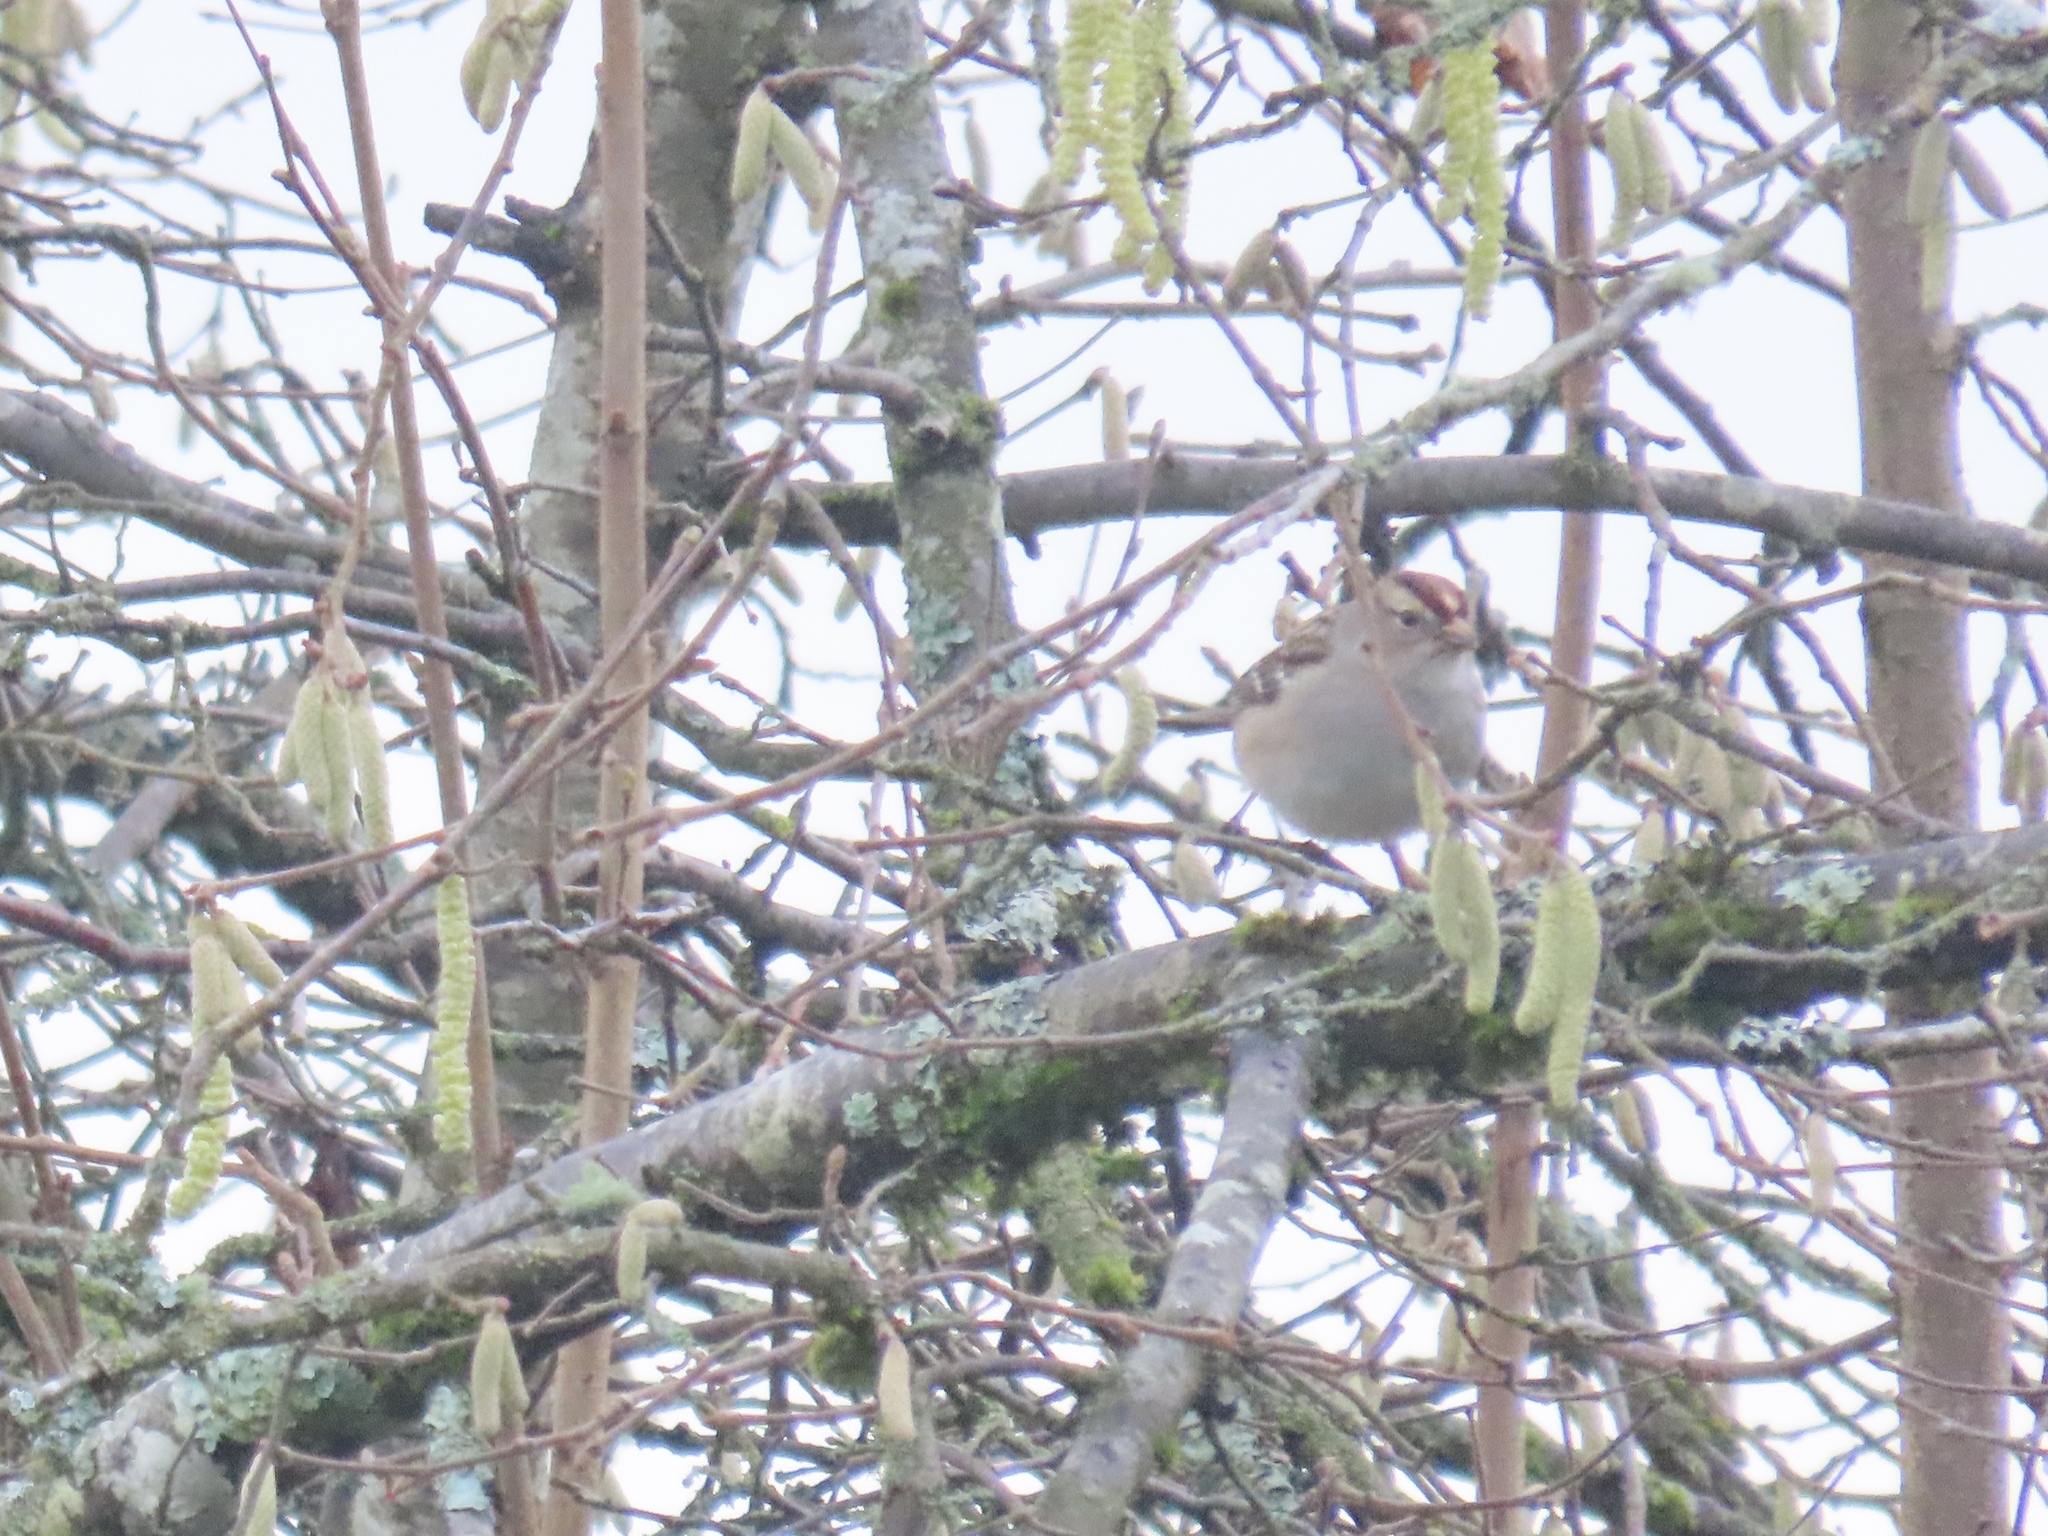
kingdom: Animalia
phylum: Chordata
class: Aves
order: Passeriformes
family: Passerellidae
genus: Zonotrichia
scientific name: Zonotrichia leucophrys
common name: White-crowned sparrow
